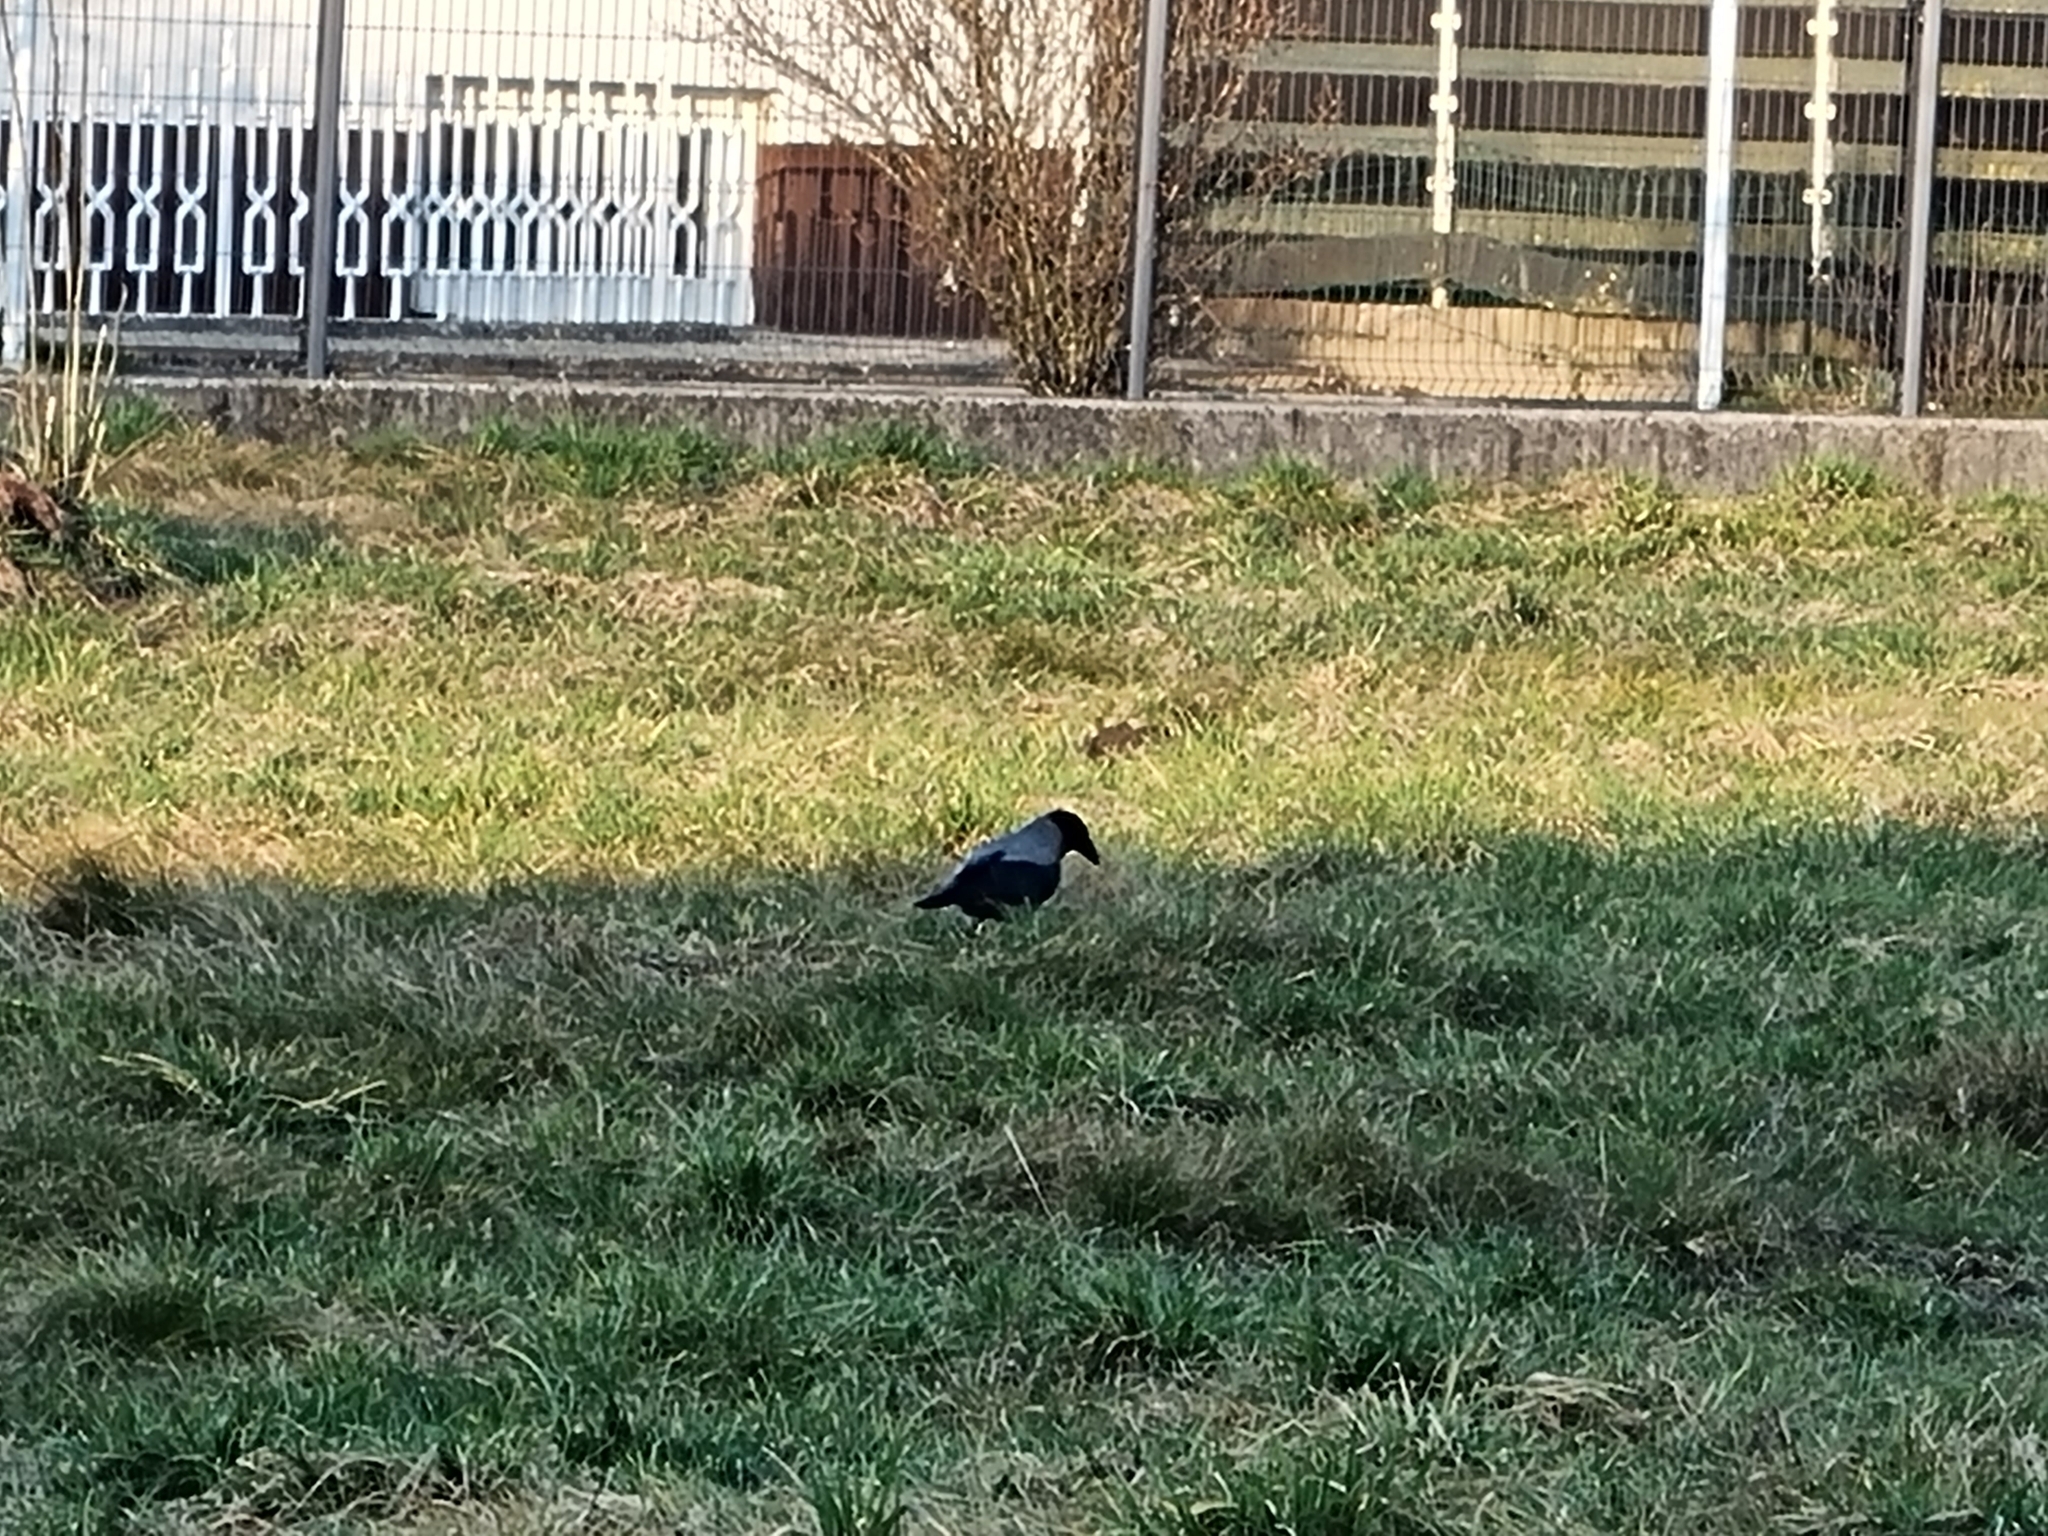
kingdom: Animalia
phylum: Chordata
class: Aves
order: Passeriformes
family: Corvidae
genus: Corvus
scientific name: Corvus cornix
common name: Hooded crow
